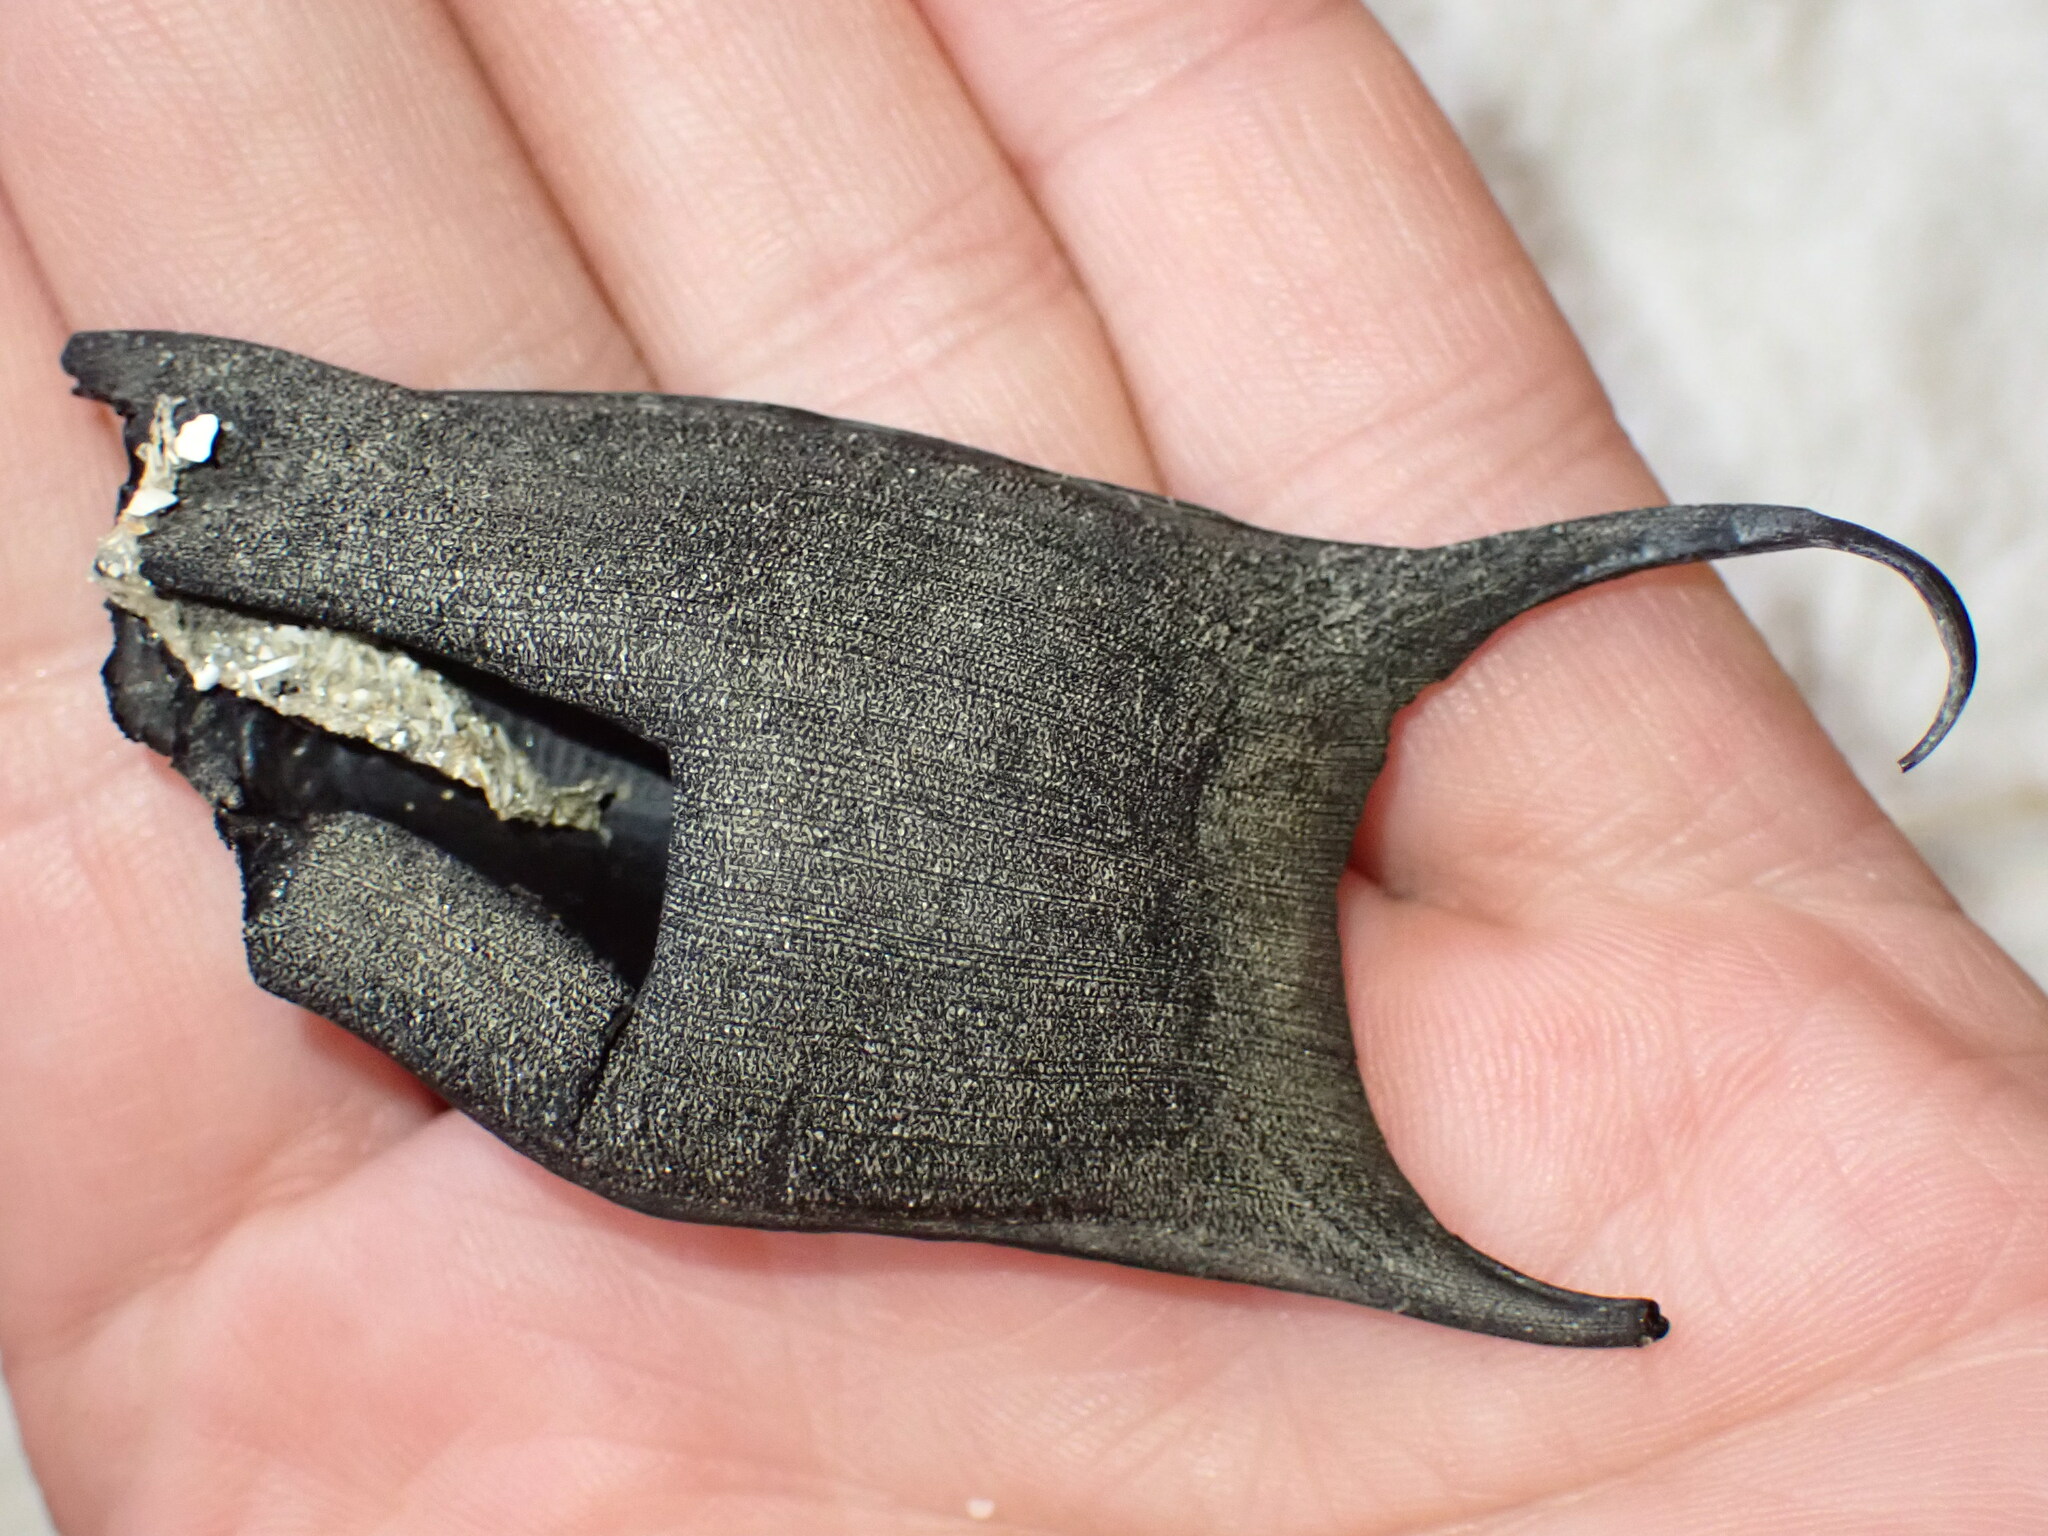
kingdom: Animalia
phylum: Chordata
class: Elasmobranchii
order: Rajiformes
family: Rajidae
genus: Amblyraja
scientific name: Amblyraja radiata
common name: Starry ray
